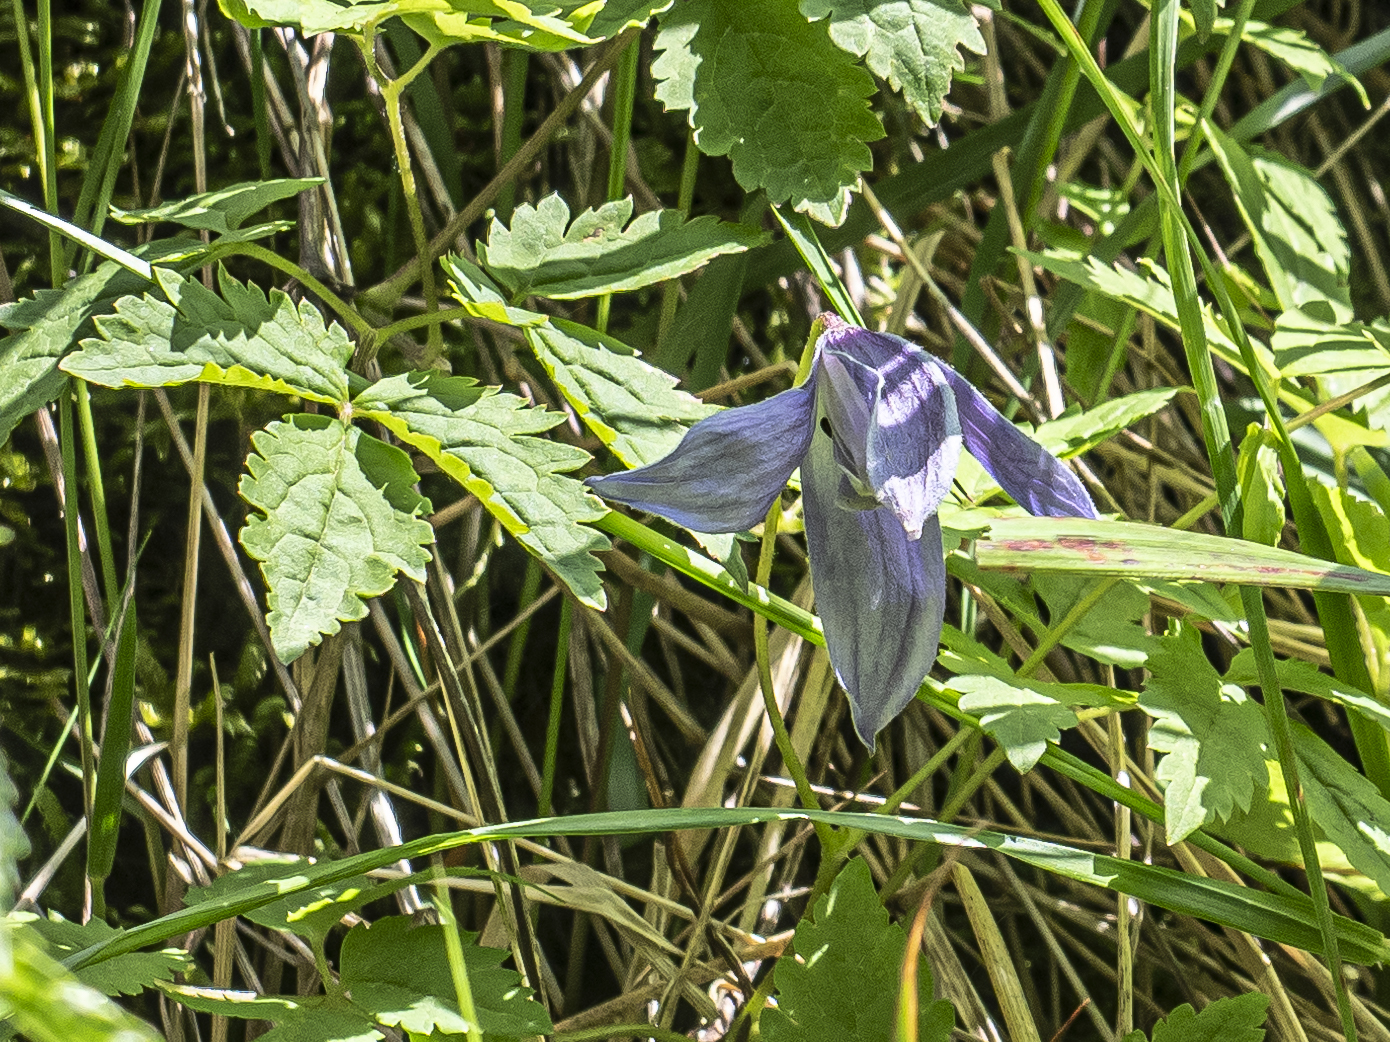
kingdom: Plantae
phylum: Tracheophyta
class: Magnoliopsida
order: Ranunculales
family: Ranunculaceae
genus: Clematis
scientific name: Clematis alpina
